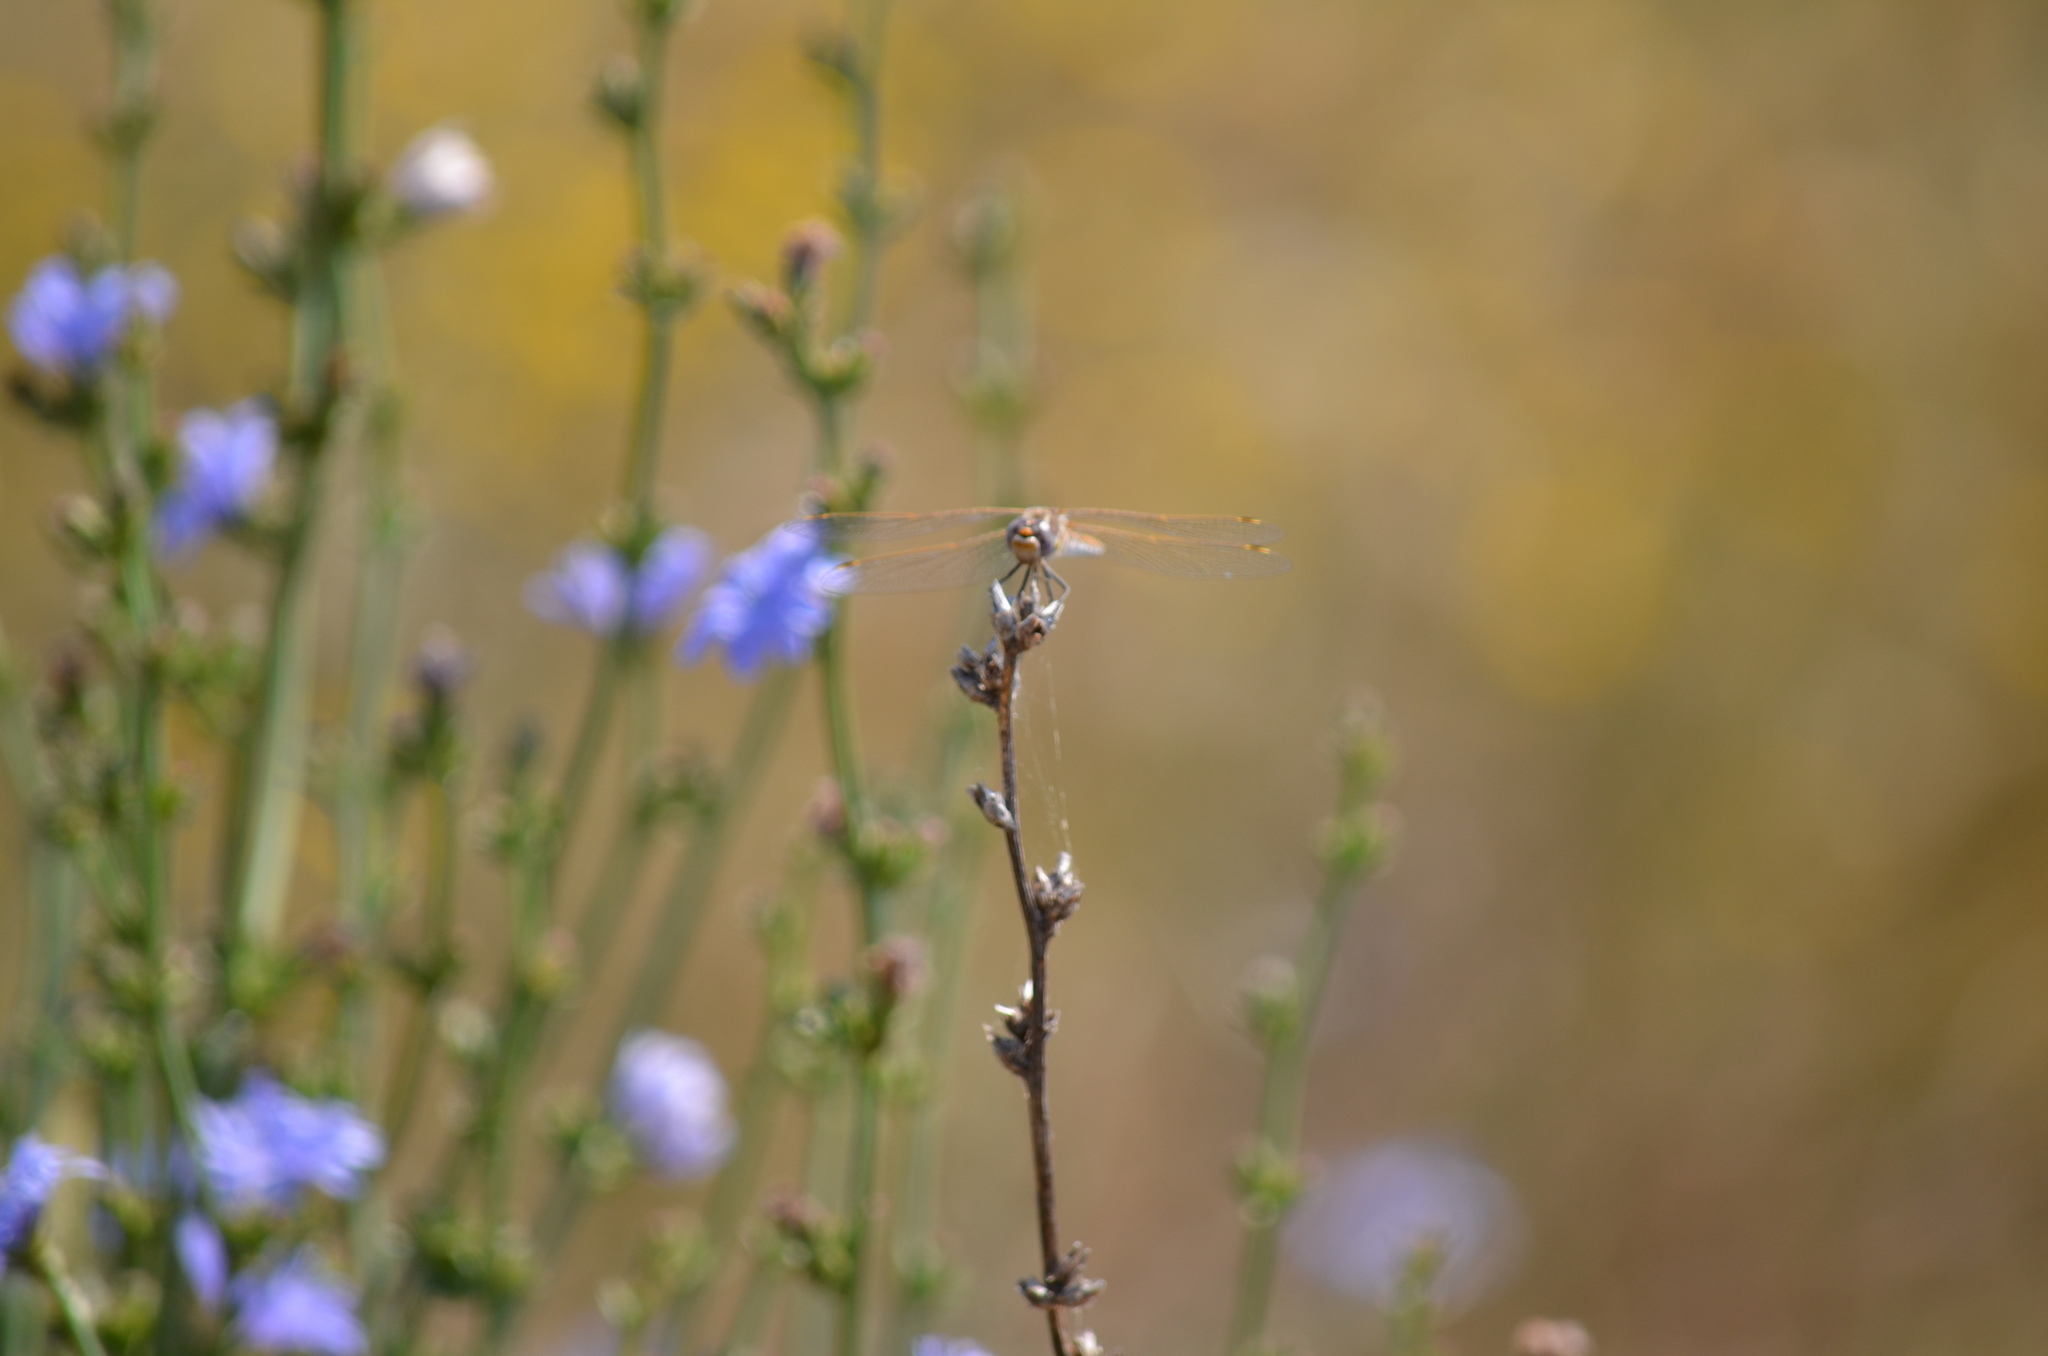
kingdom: Animalia
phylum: Arthropoda
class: Insecta
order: Odonata
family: Libellulidae
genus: Sympetrum
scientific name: Sympetrum corruptum
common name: Variegated meadowhawk
